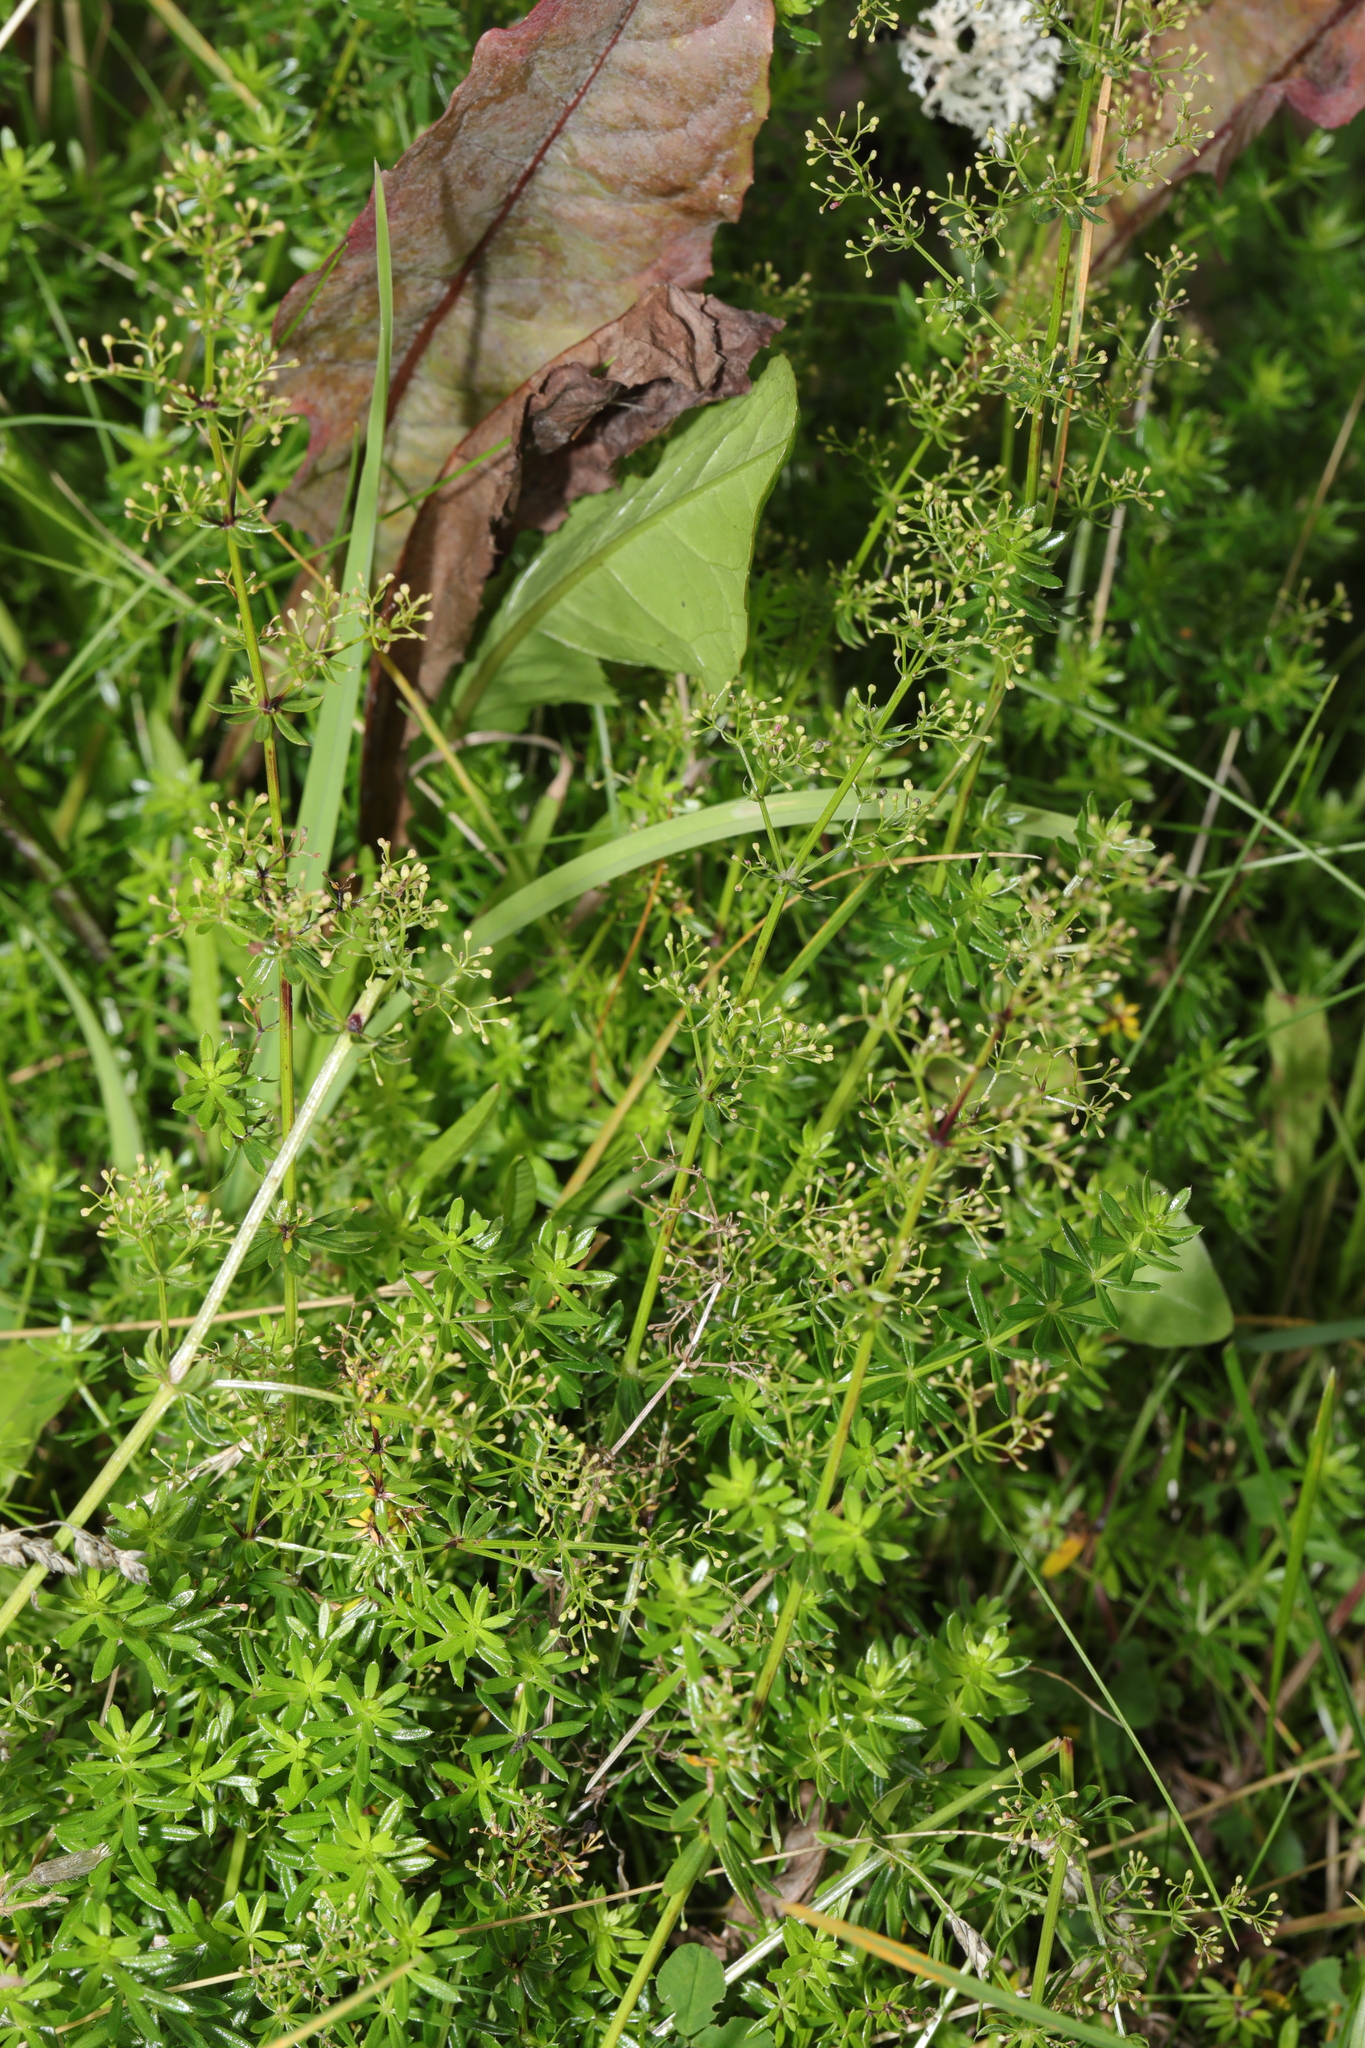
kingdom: Plantae
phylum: Tracheophyta
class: Magnoliopsida
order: Gentianales
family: Rubiaceae
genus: Galium
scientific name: Galium mollugo
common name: Hedge bedstraw
